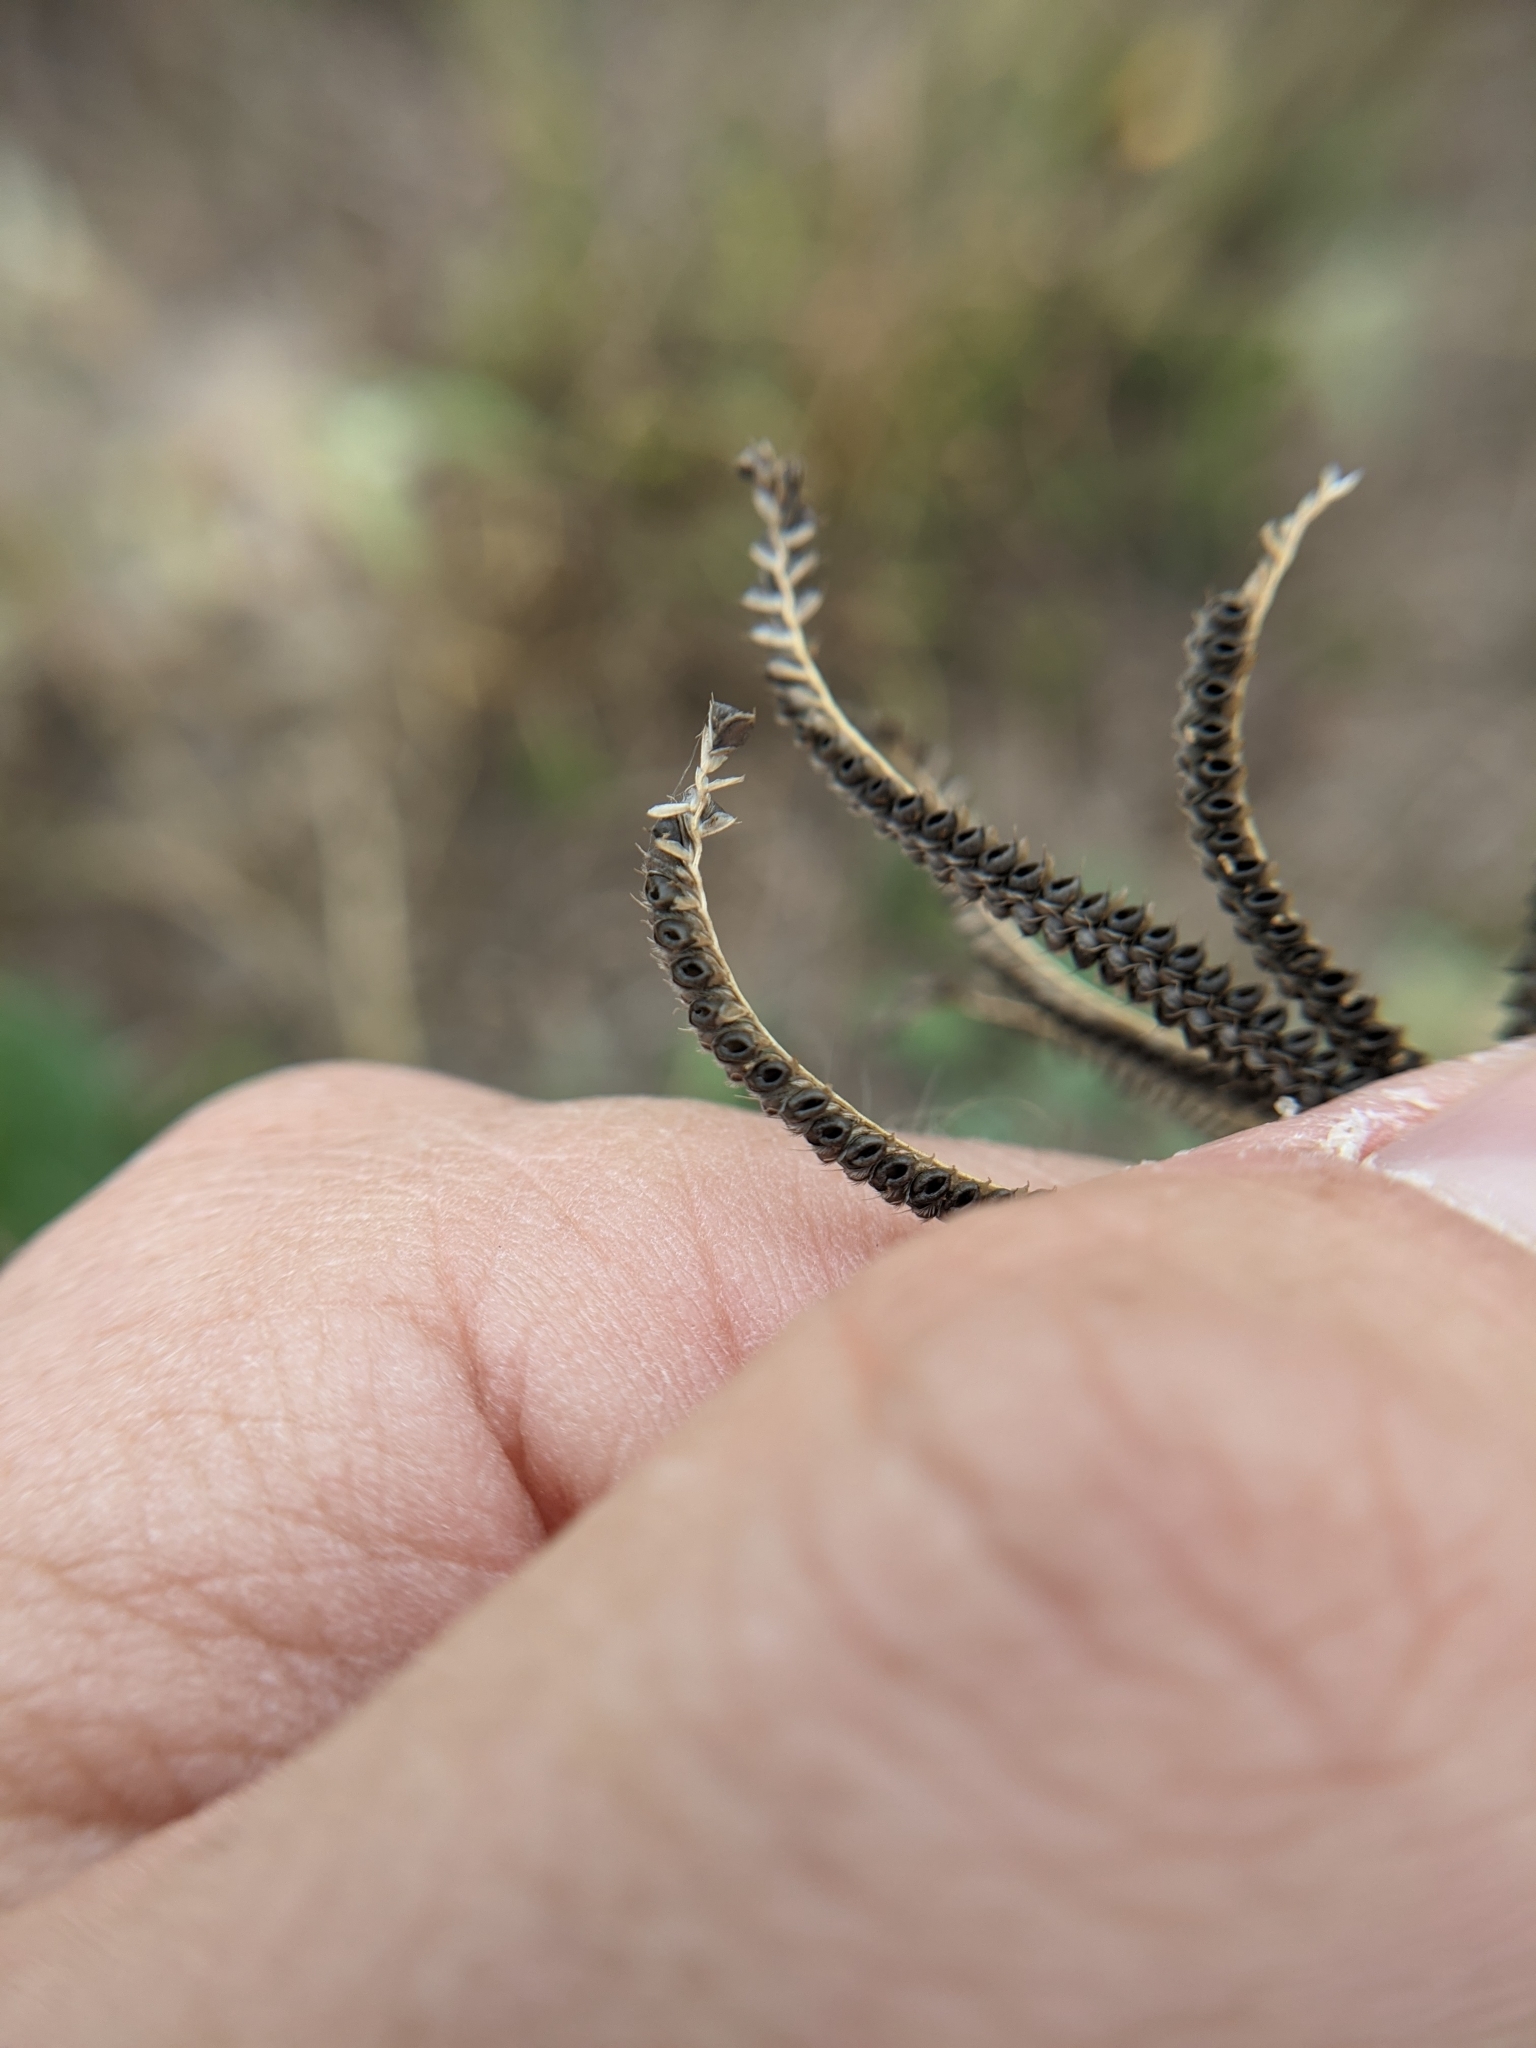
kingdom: Plantae
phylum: Tracheophyta
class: Liliopsida
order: Poales
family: Poaceae
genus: Chloris
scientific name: Chloris cucullata
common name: Hooded windmill grass
